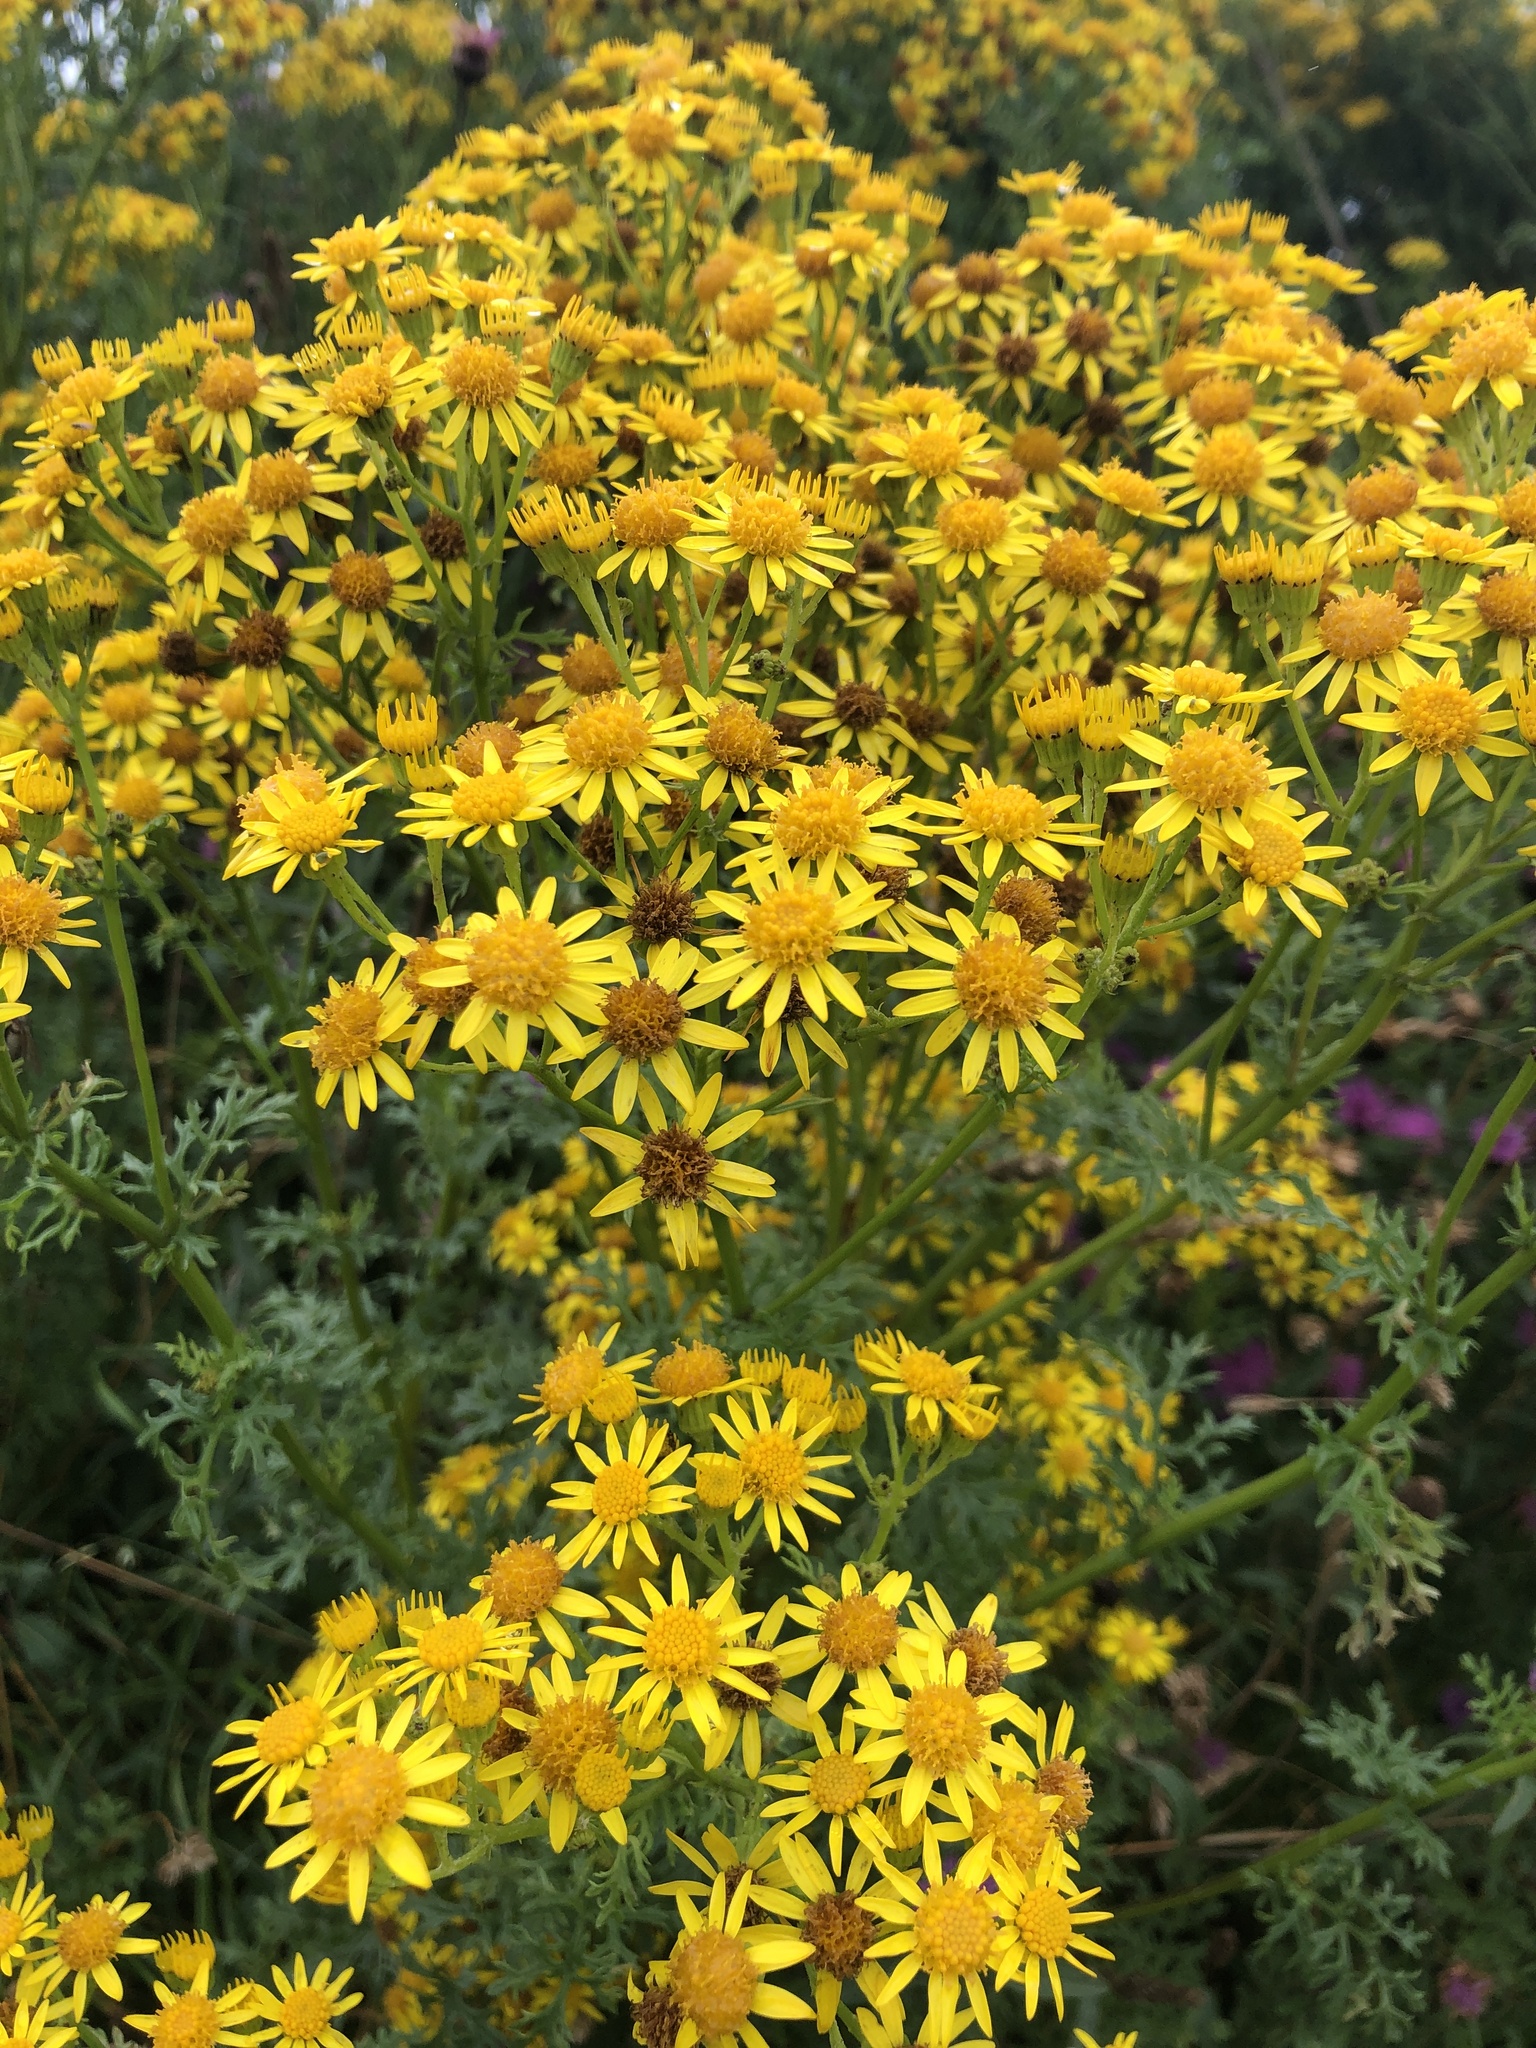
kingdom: Plantae
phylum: Tracheophyta
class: Magnoliopsida
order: Asterales
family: Asteraceae
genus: Jacobaea
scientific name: Jacobaea vulgaris
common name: Stinking willie
